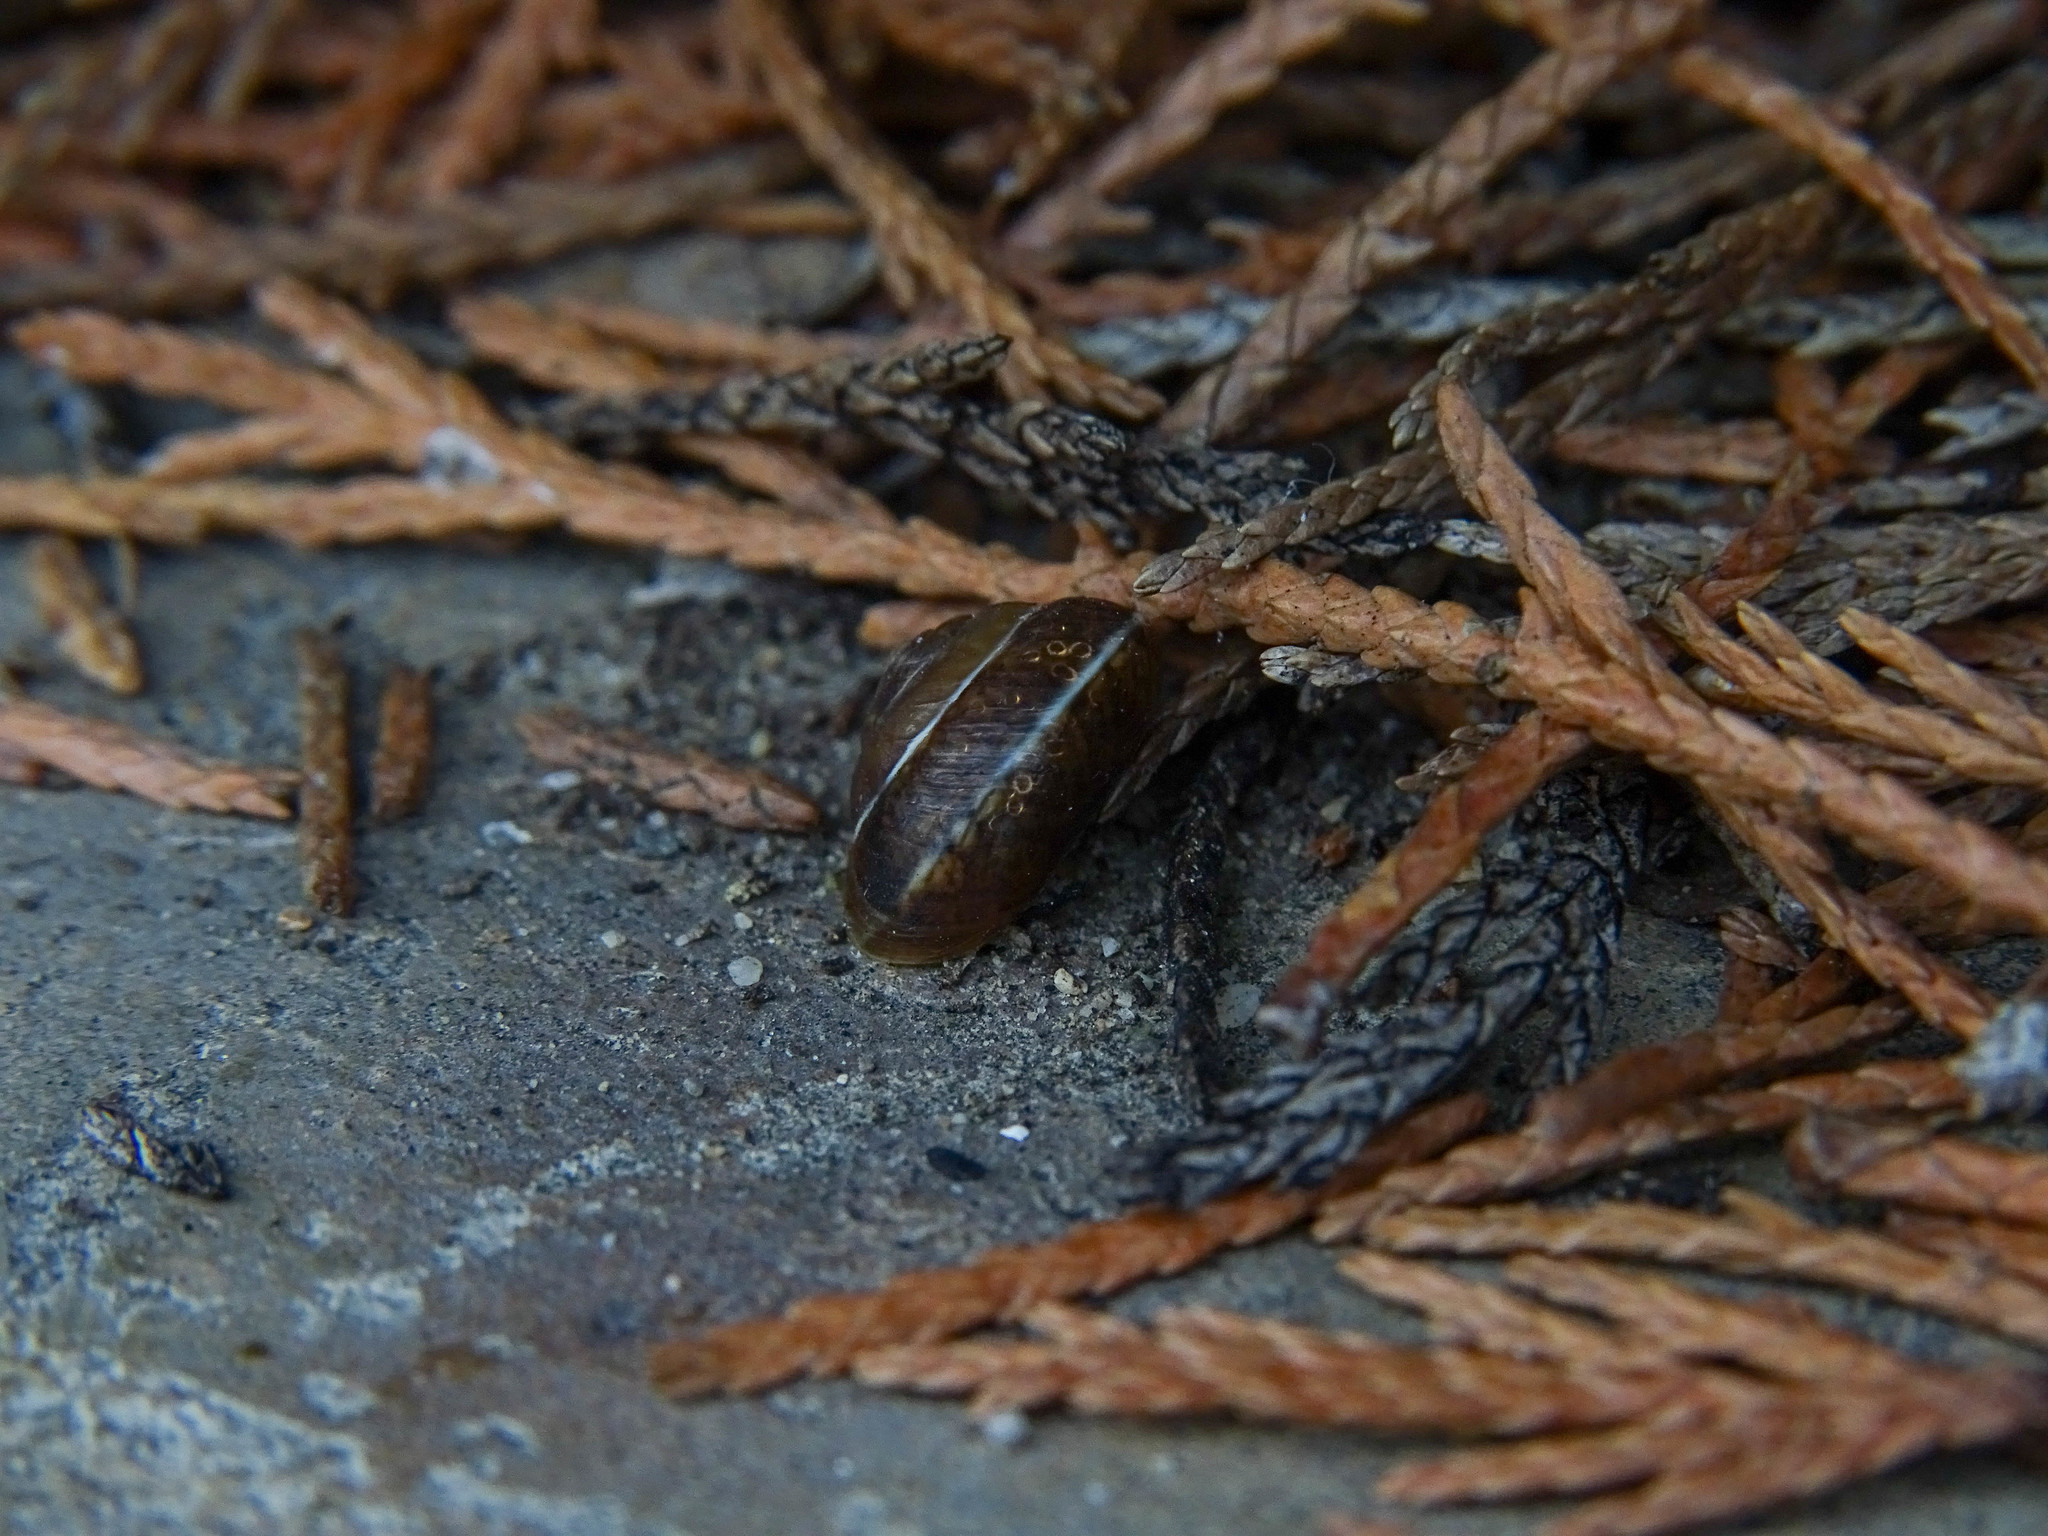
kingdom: Animalia
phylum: Mollusca
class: Gastropoda
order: Stylommatophora
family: Hygromiidae
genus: Hygromia
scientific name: Hygromia cinctella
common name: Girdled snail
